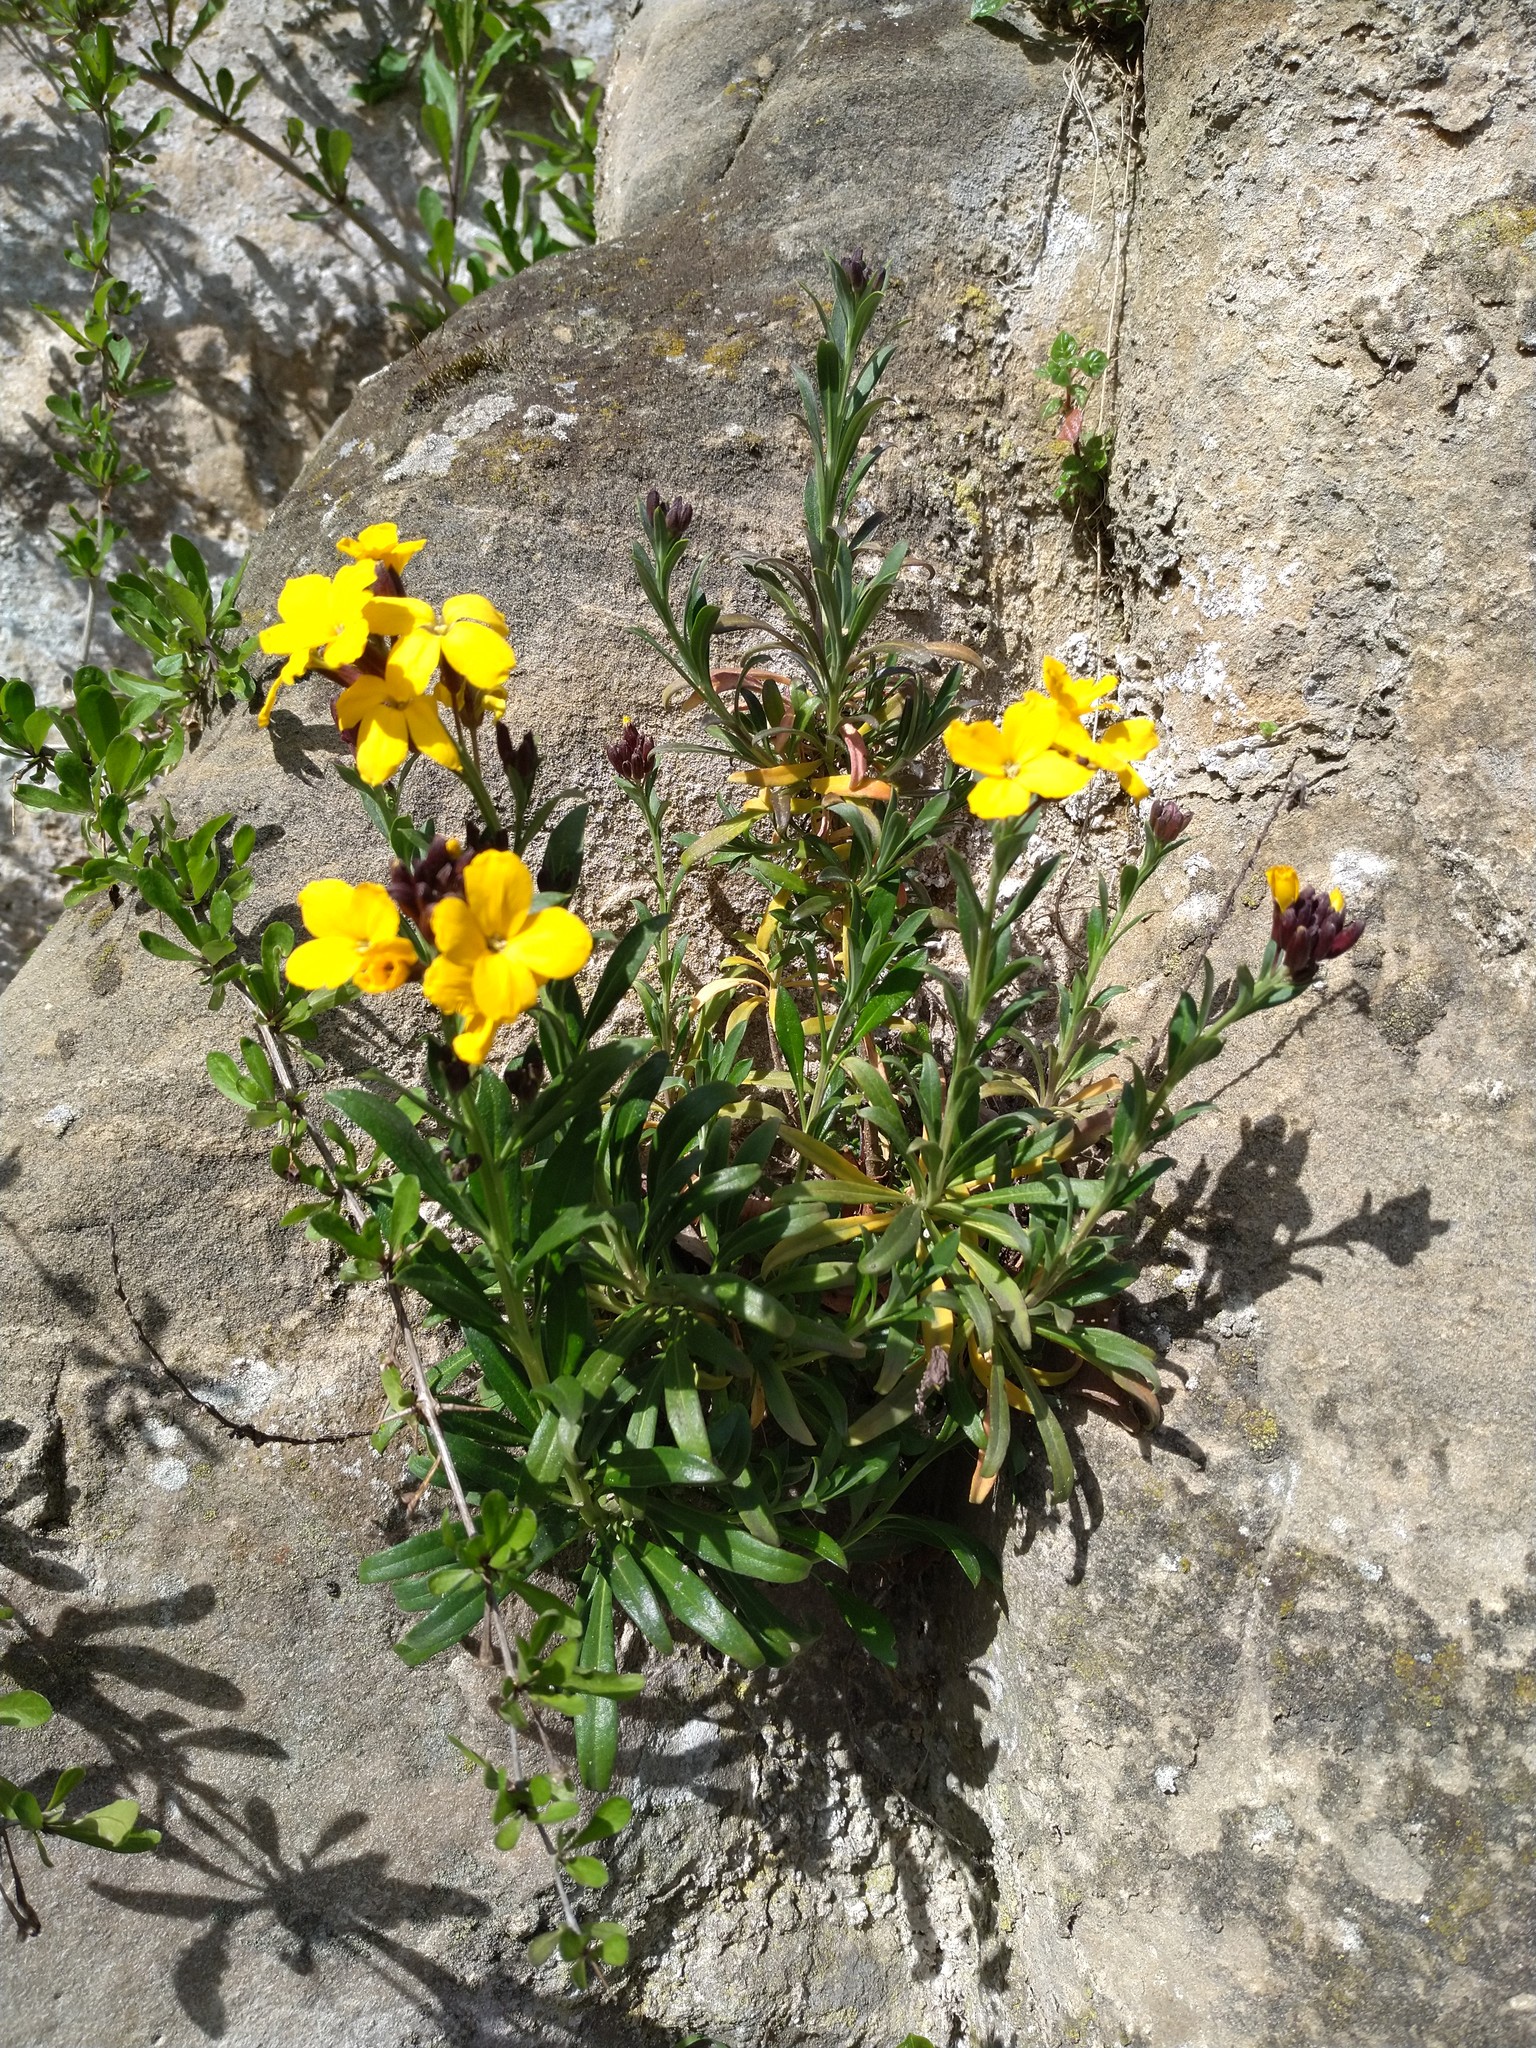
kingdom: Plantae
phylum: Tracheophyta
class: Magnoliopsida
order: Brassicales
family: Brassicaceae
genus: Erysimum
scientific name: Erysimum cheiri
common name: Wallflower
